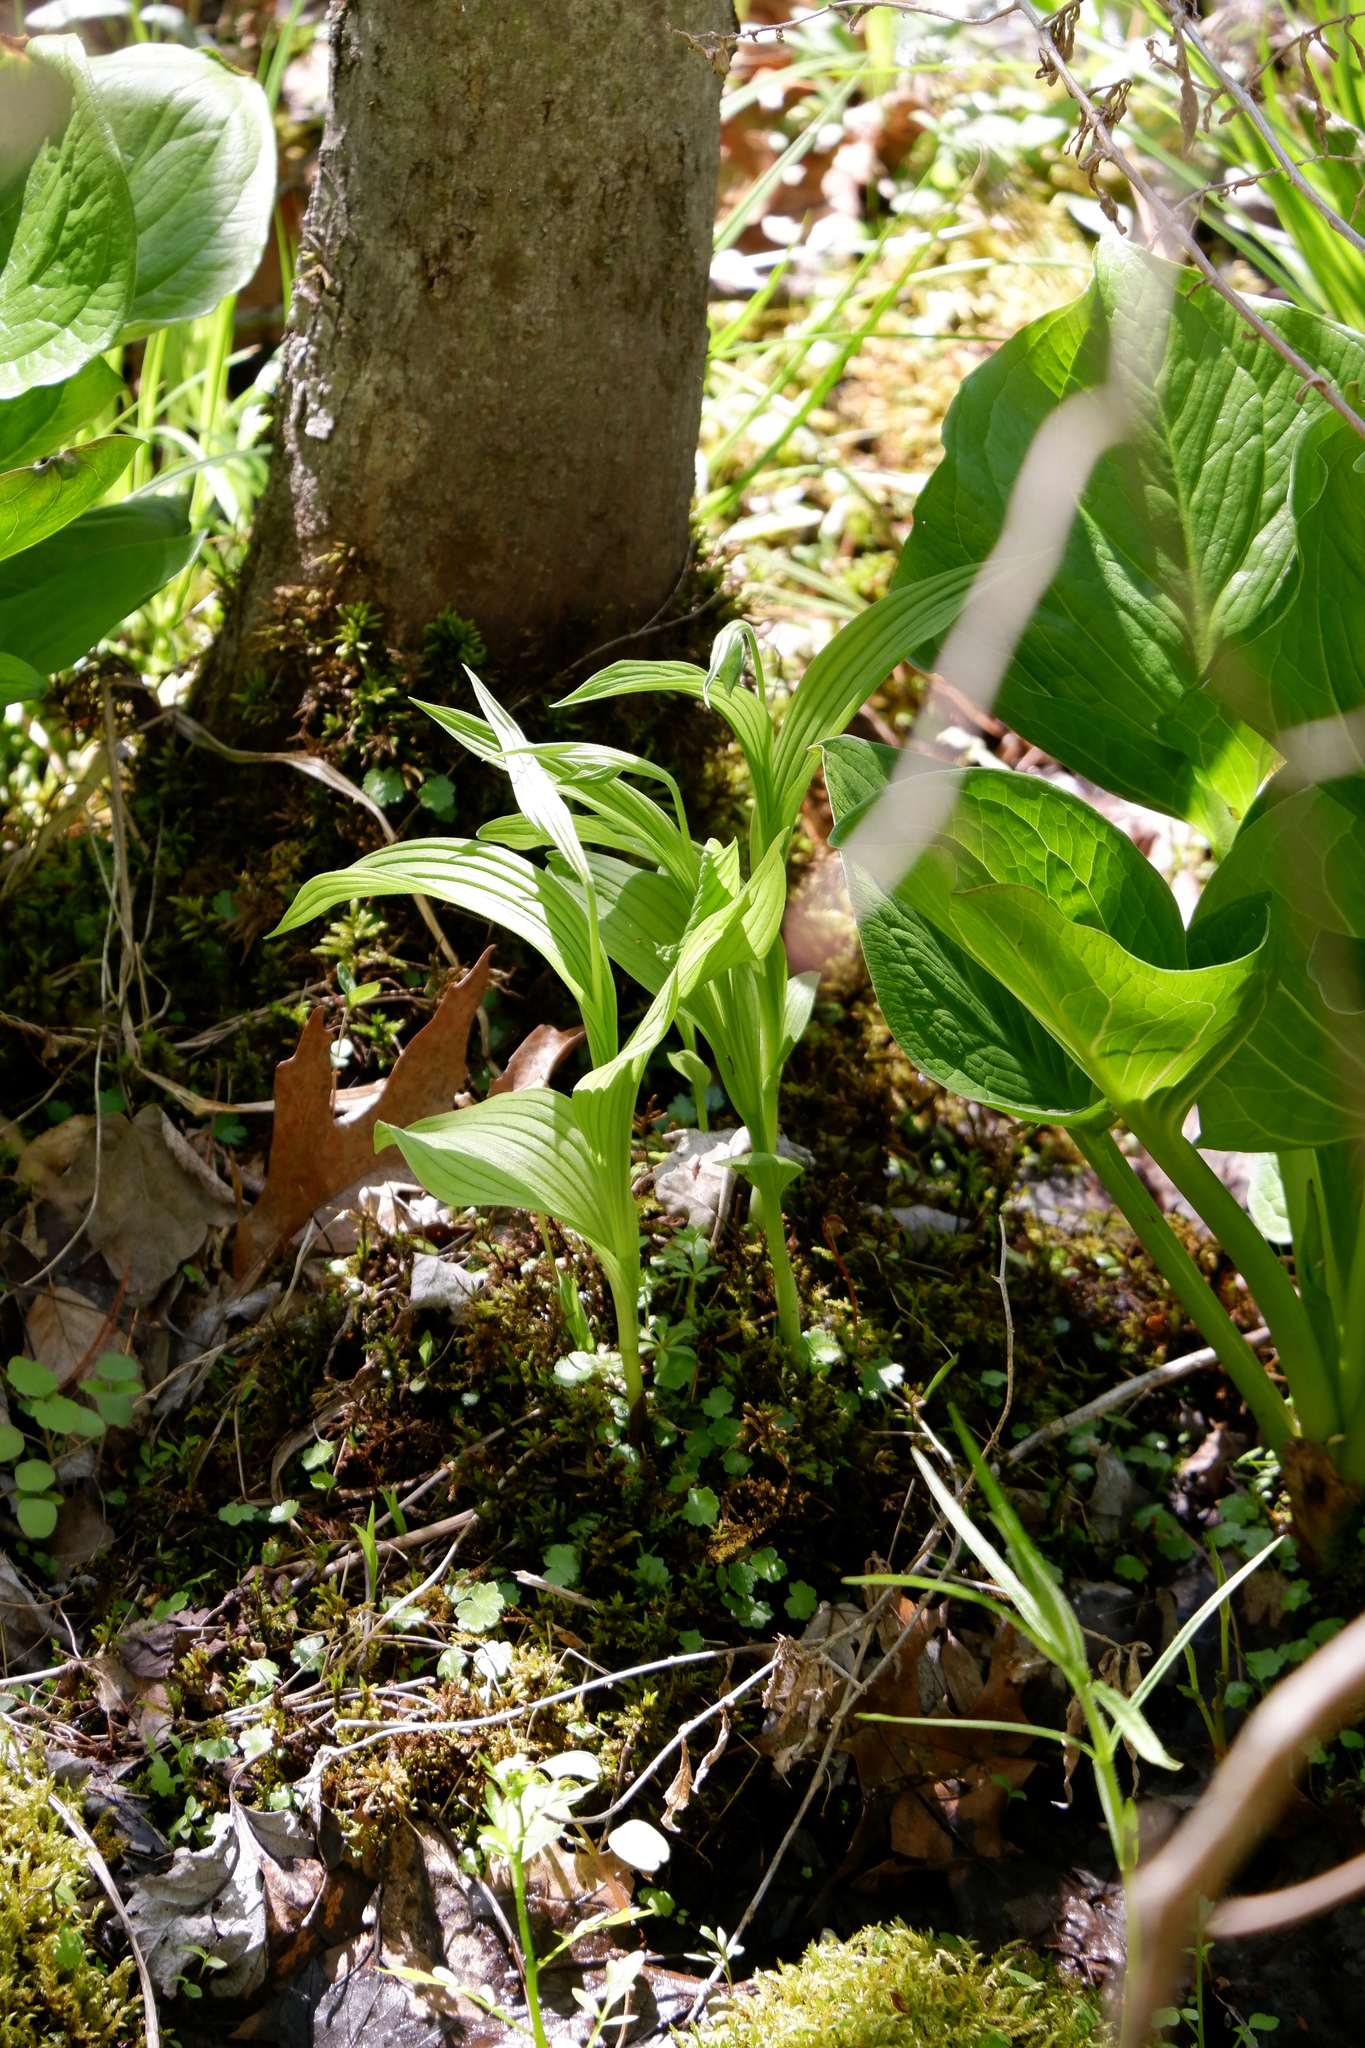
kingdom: Plantae
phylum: Tracheophyta
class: Liliopsida
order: Asparagales
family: Orchidaceae
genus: Cypripedium
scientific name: Cypripedium parviflorum
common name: American yellow lady's-slipper
